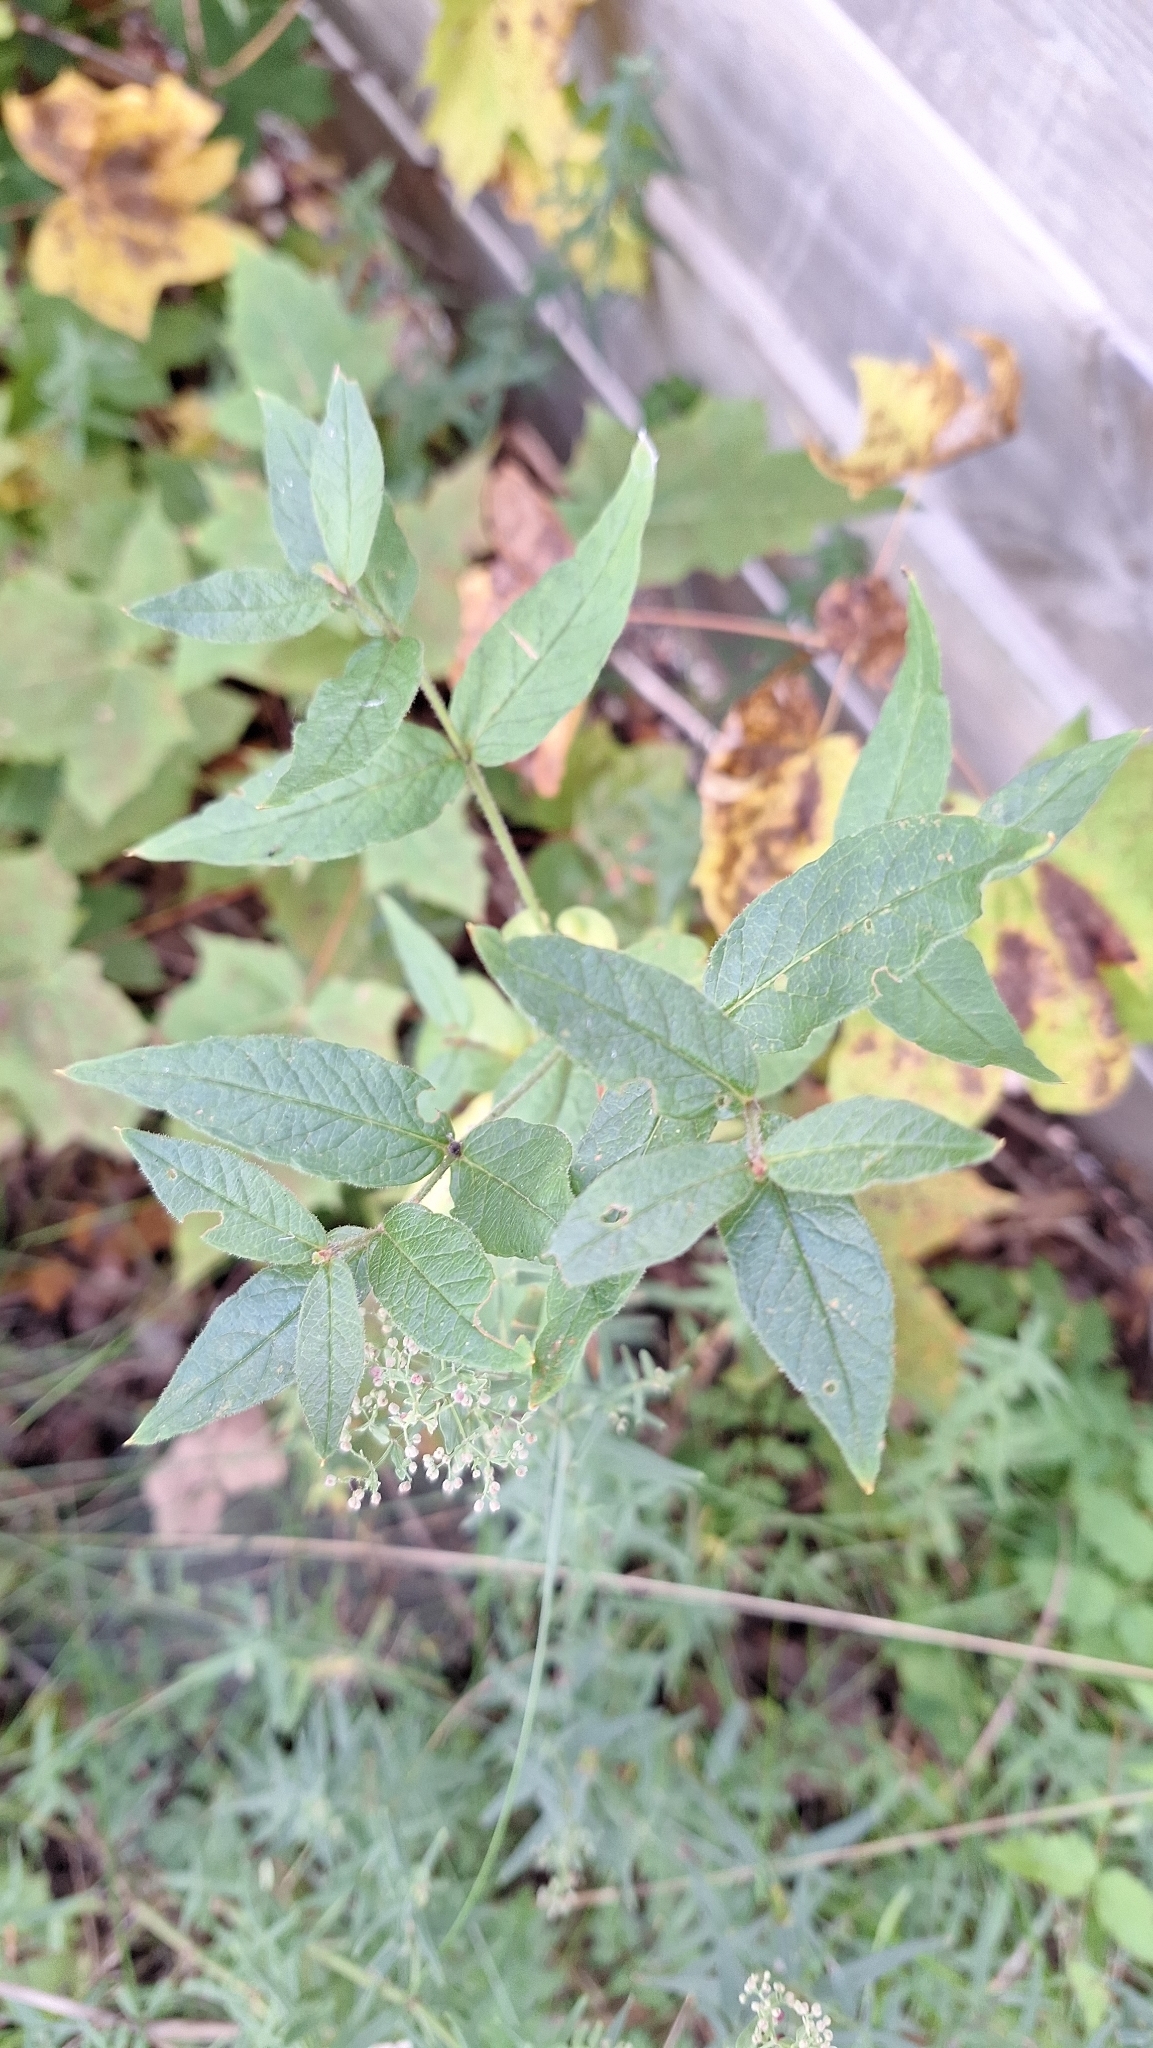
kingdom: Plantae
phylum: Tracheophyta
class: Magnoliopsida
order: Ericales
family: Primulaceae
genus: Lysimachia
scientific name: Lysimachia vulgaris
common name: Yellow loosestrife
